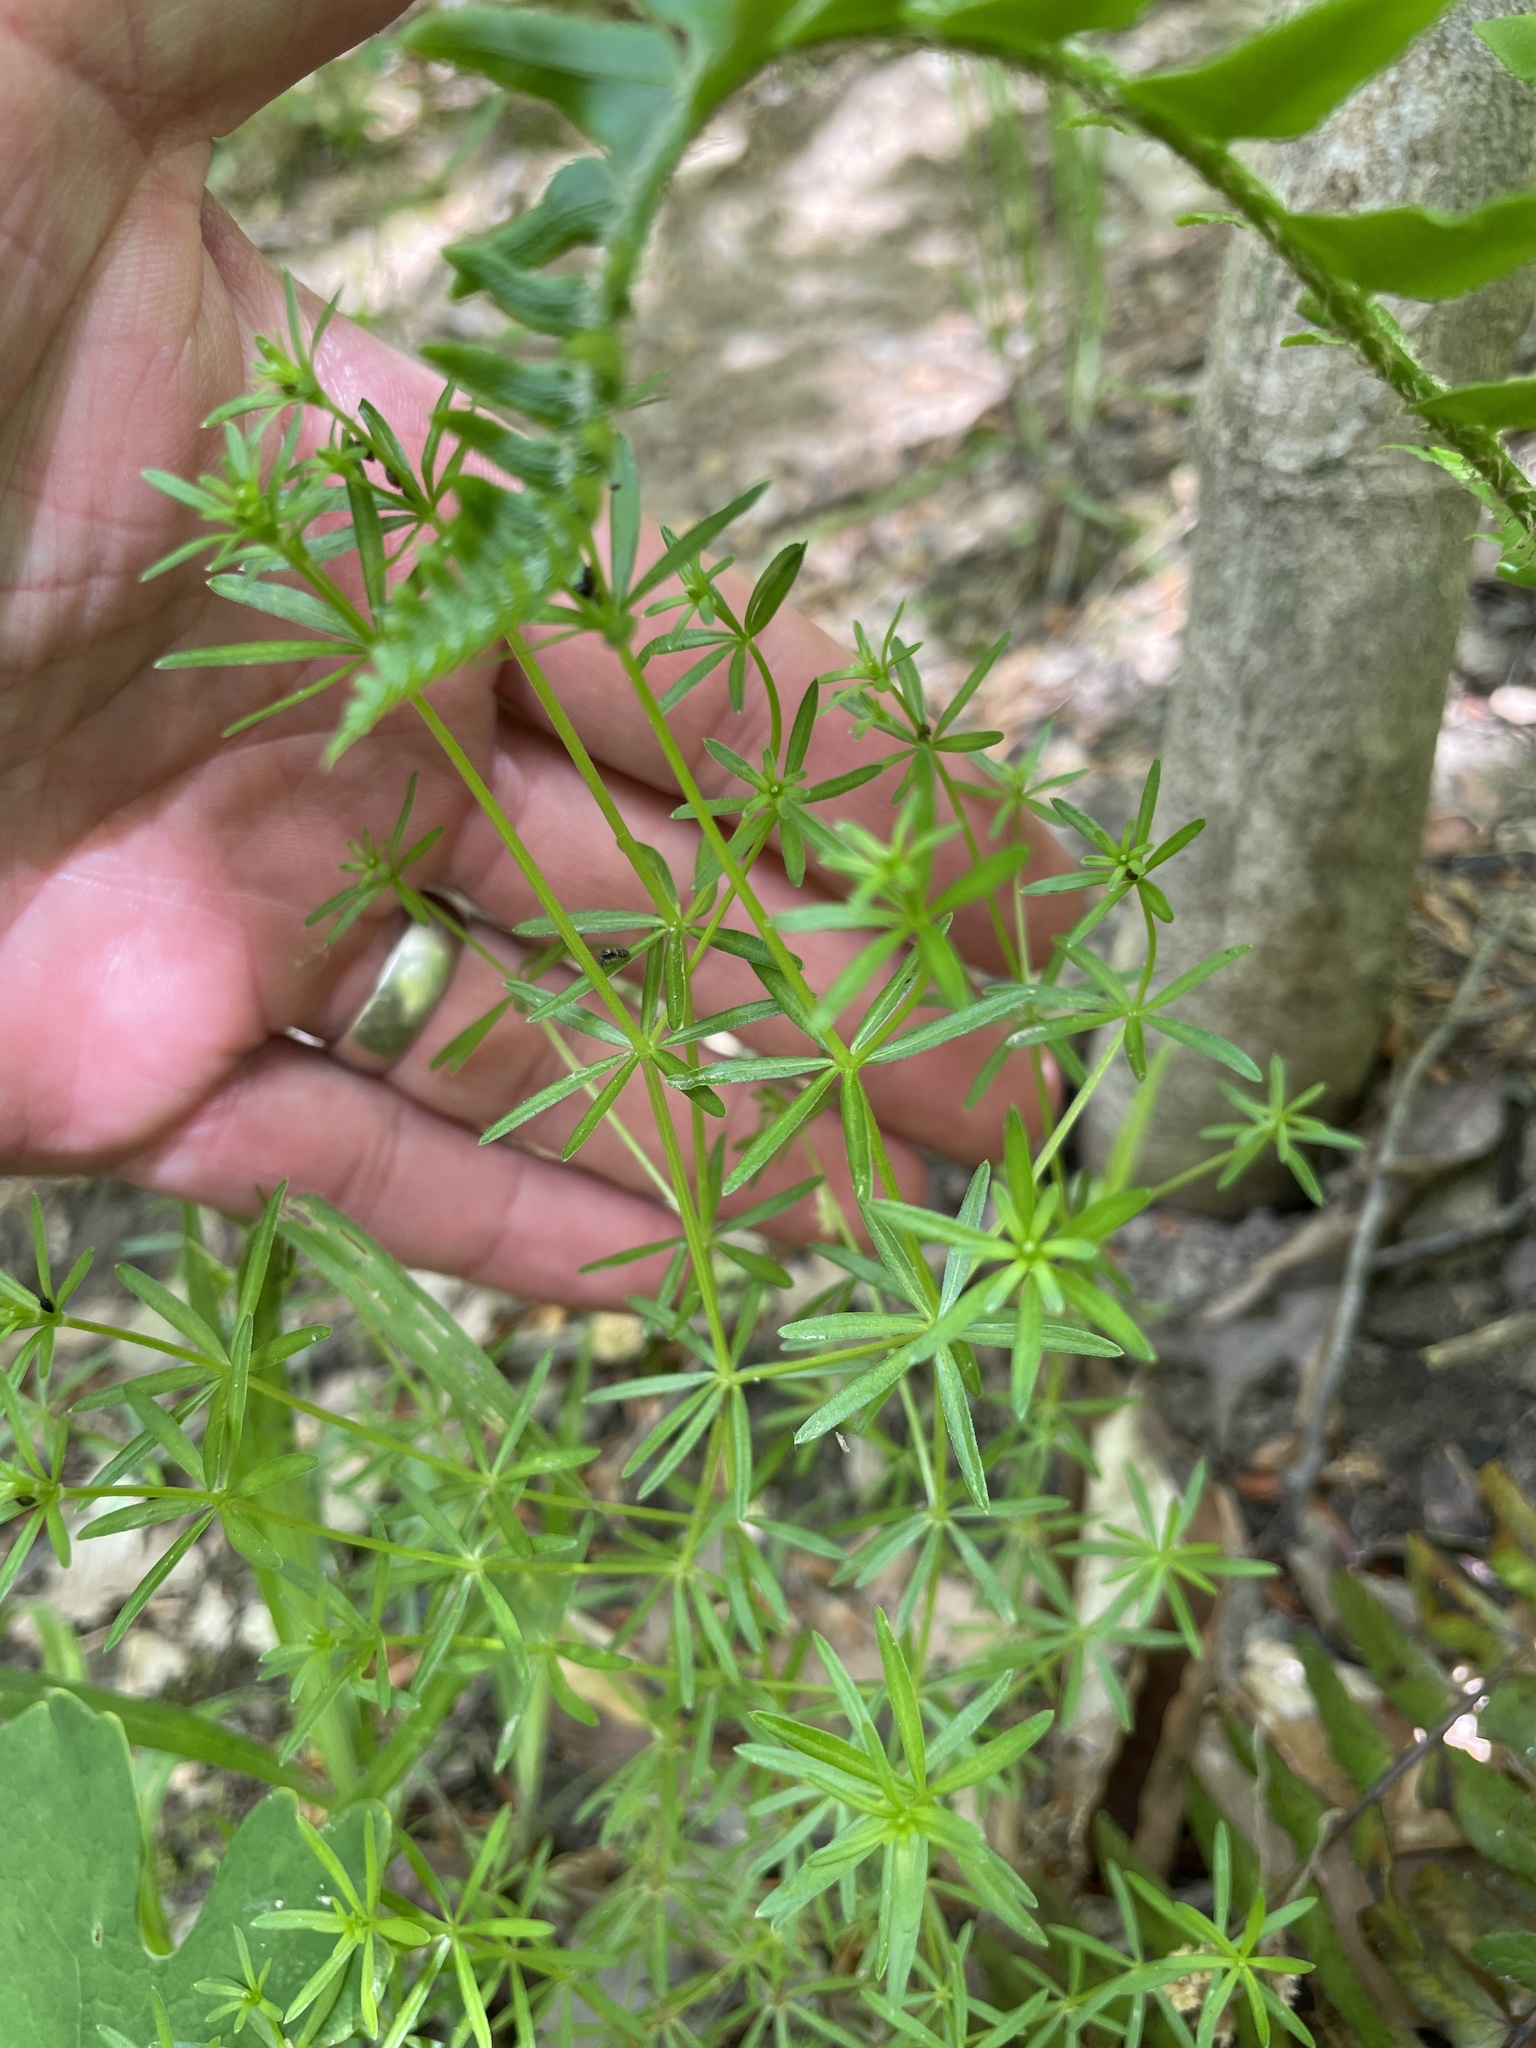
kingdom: Plantae
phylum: Tracheophyta
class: Magnoliopsida
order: Gentianales
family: Rubiaceae
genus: Galium
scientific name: Galium concinnum
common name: Shining bedstraw
